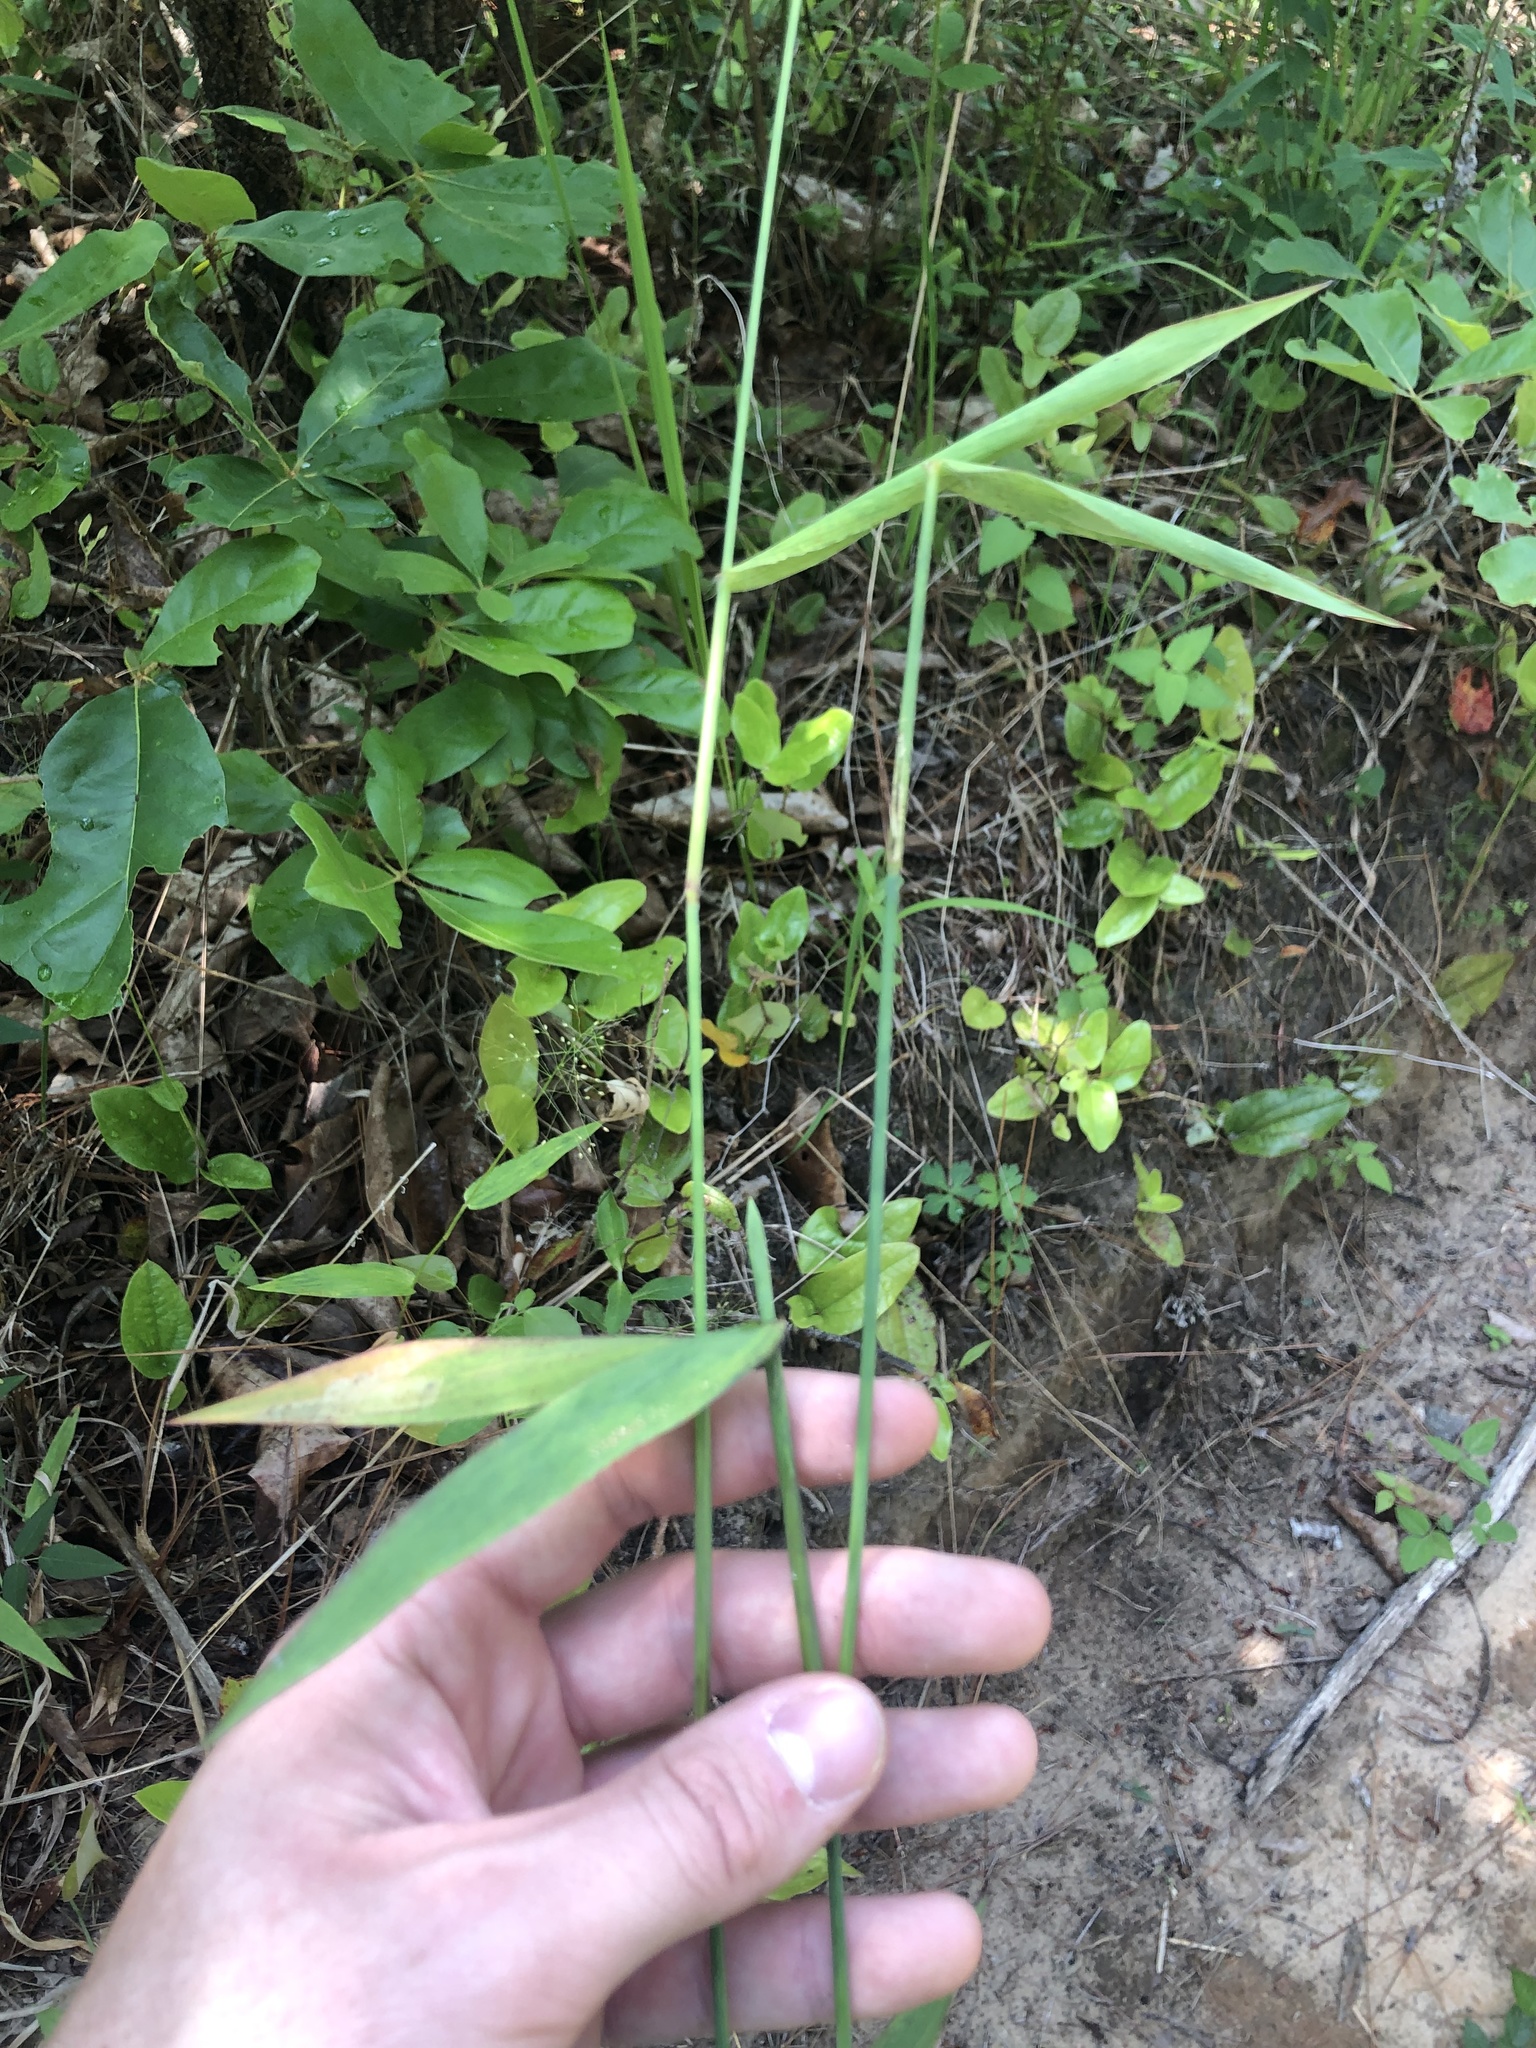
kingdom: Plantae
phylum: Tracheophyta
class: Liliopsida
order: Poales
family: Poaceae
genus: Dichanthelium
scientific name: Dichanthelium equilaterale
